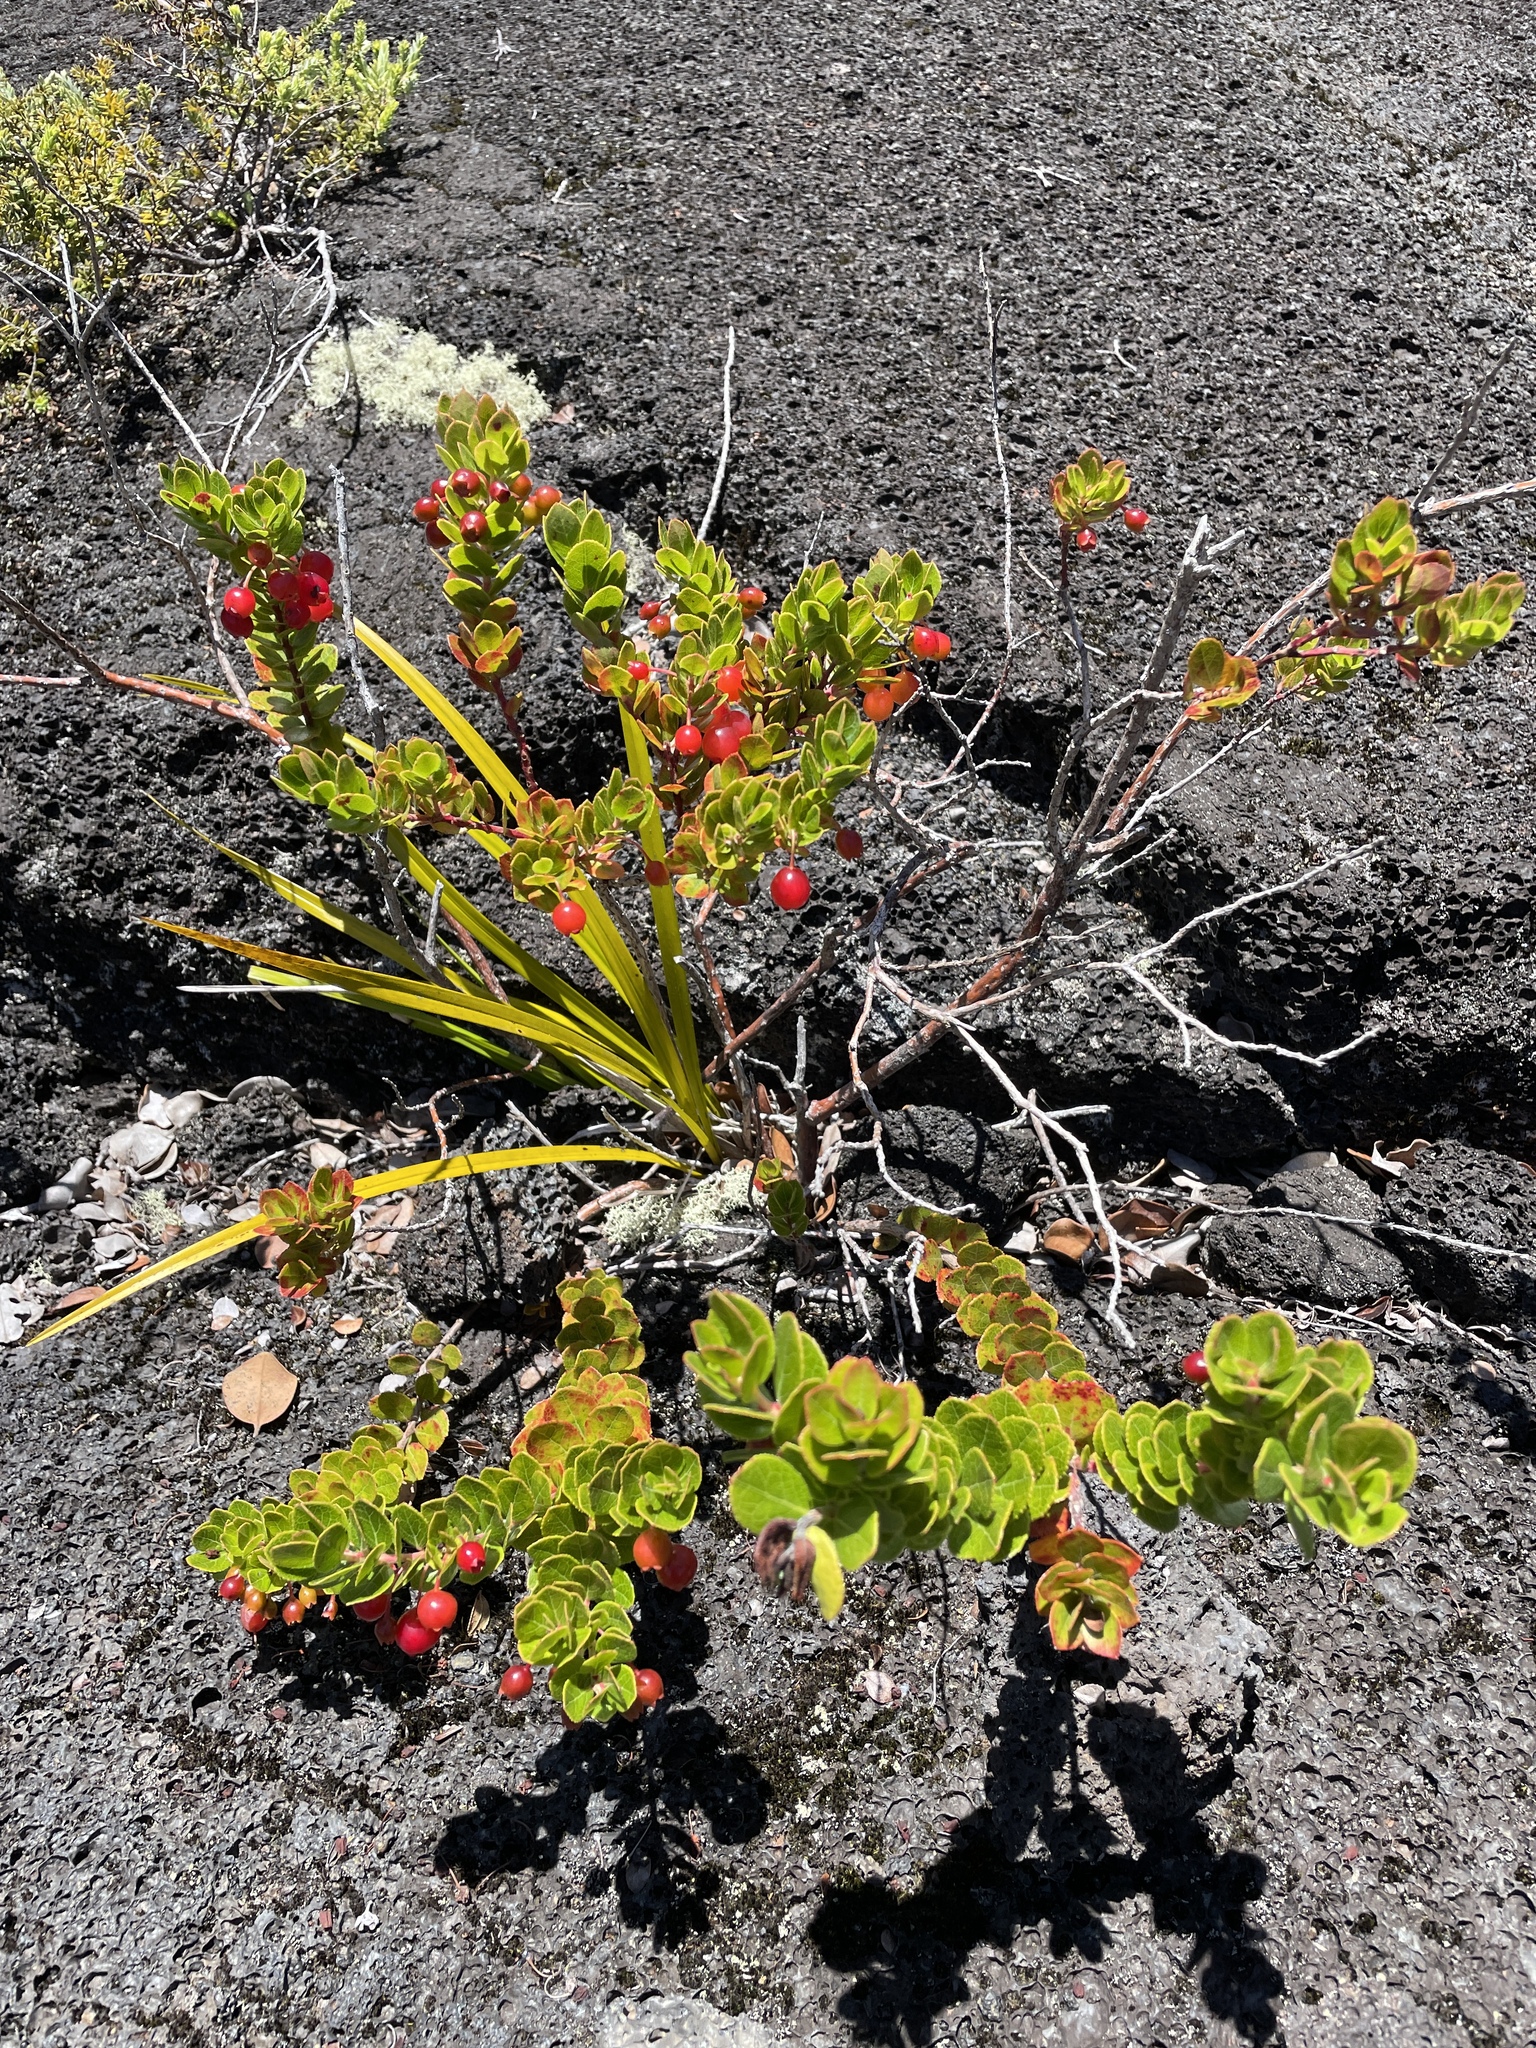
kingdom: Plantae
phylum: Tracheophyta
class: Magnoliopsida
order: Ericales
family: Ericaceae
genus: Vaccinium
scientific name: Vaccinium reticulatum
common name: Ohelo
